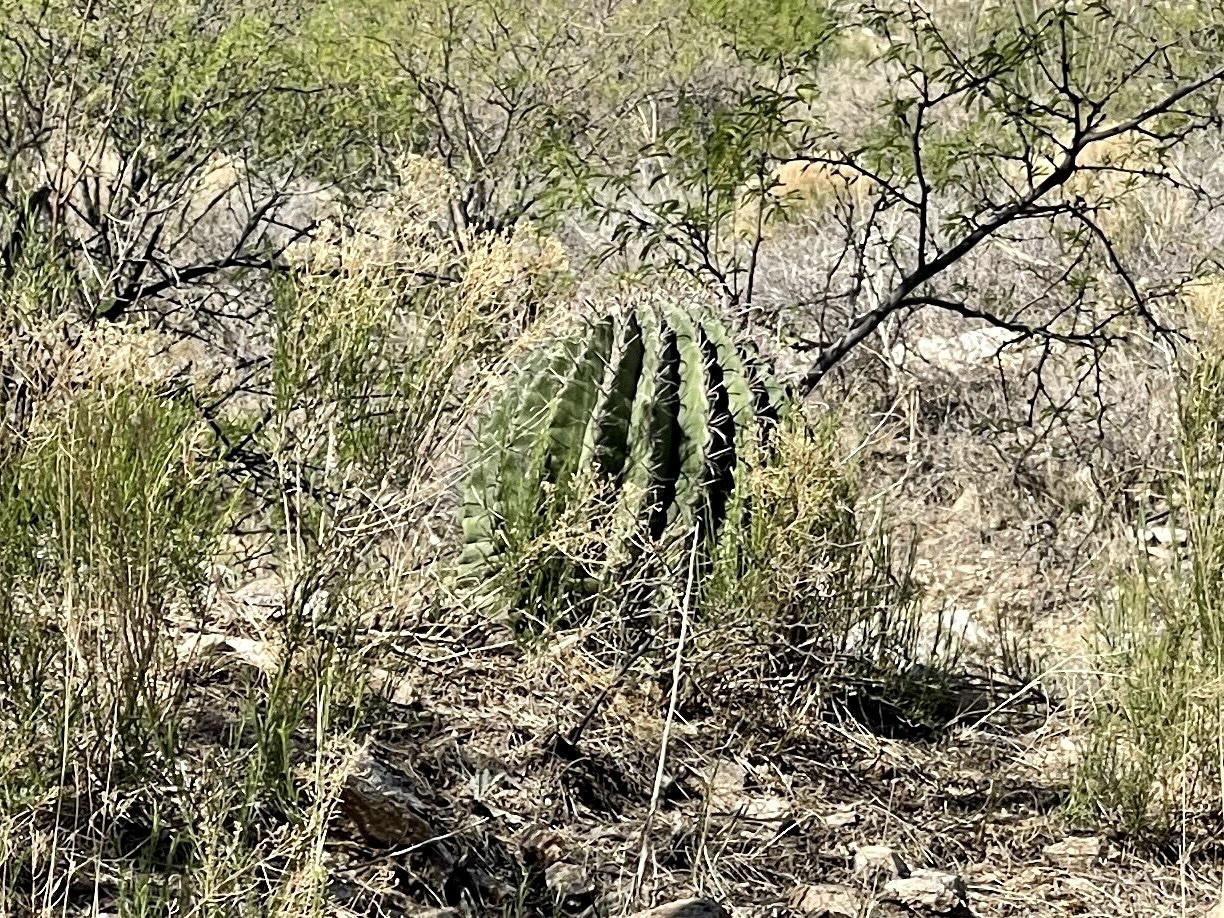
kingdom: Plantae
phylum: Tracheophyta
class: Magnoliopsida
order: Caryophyllales
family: Cactaceae
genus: Ferocactus
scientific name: Ferocactus wislizeni
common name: Candy barrel cactus
